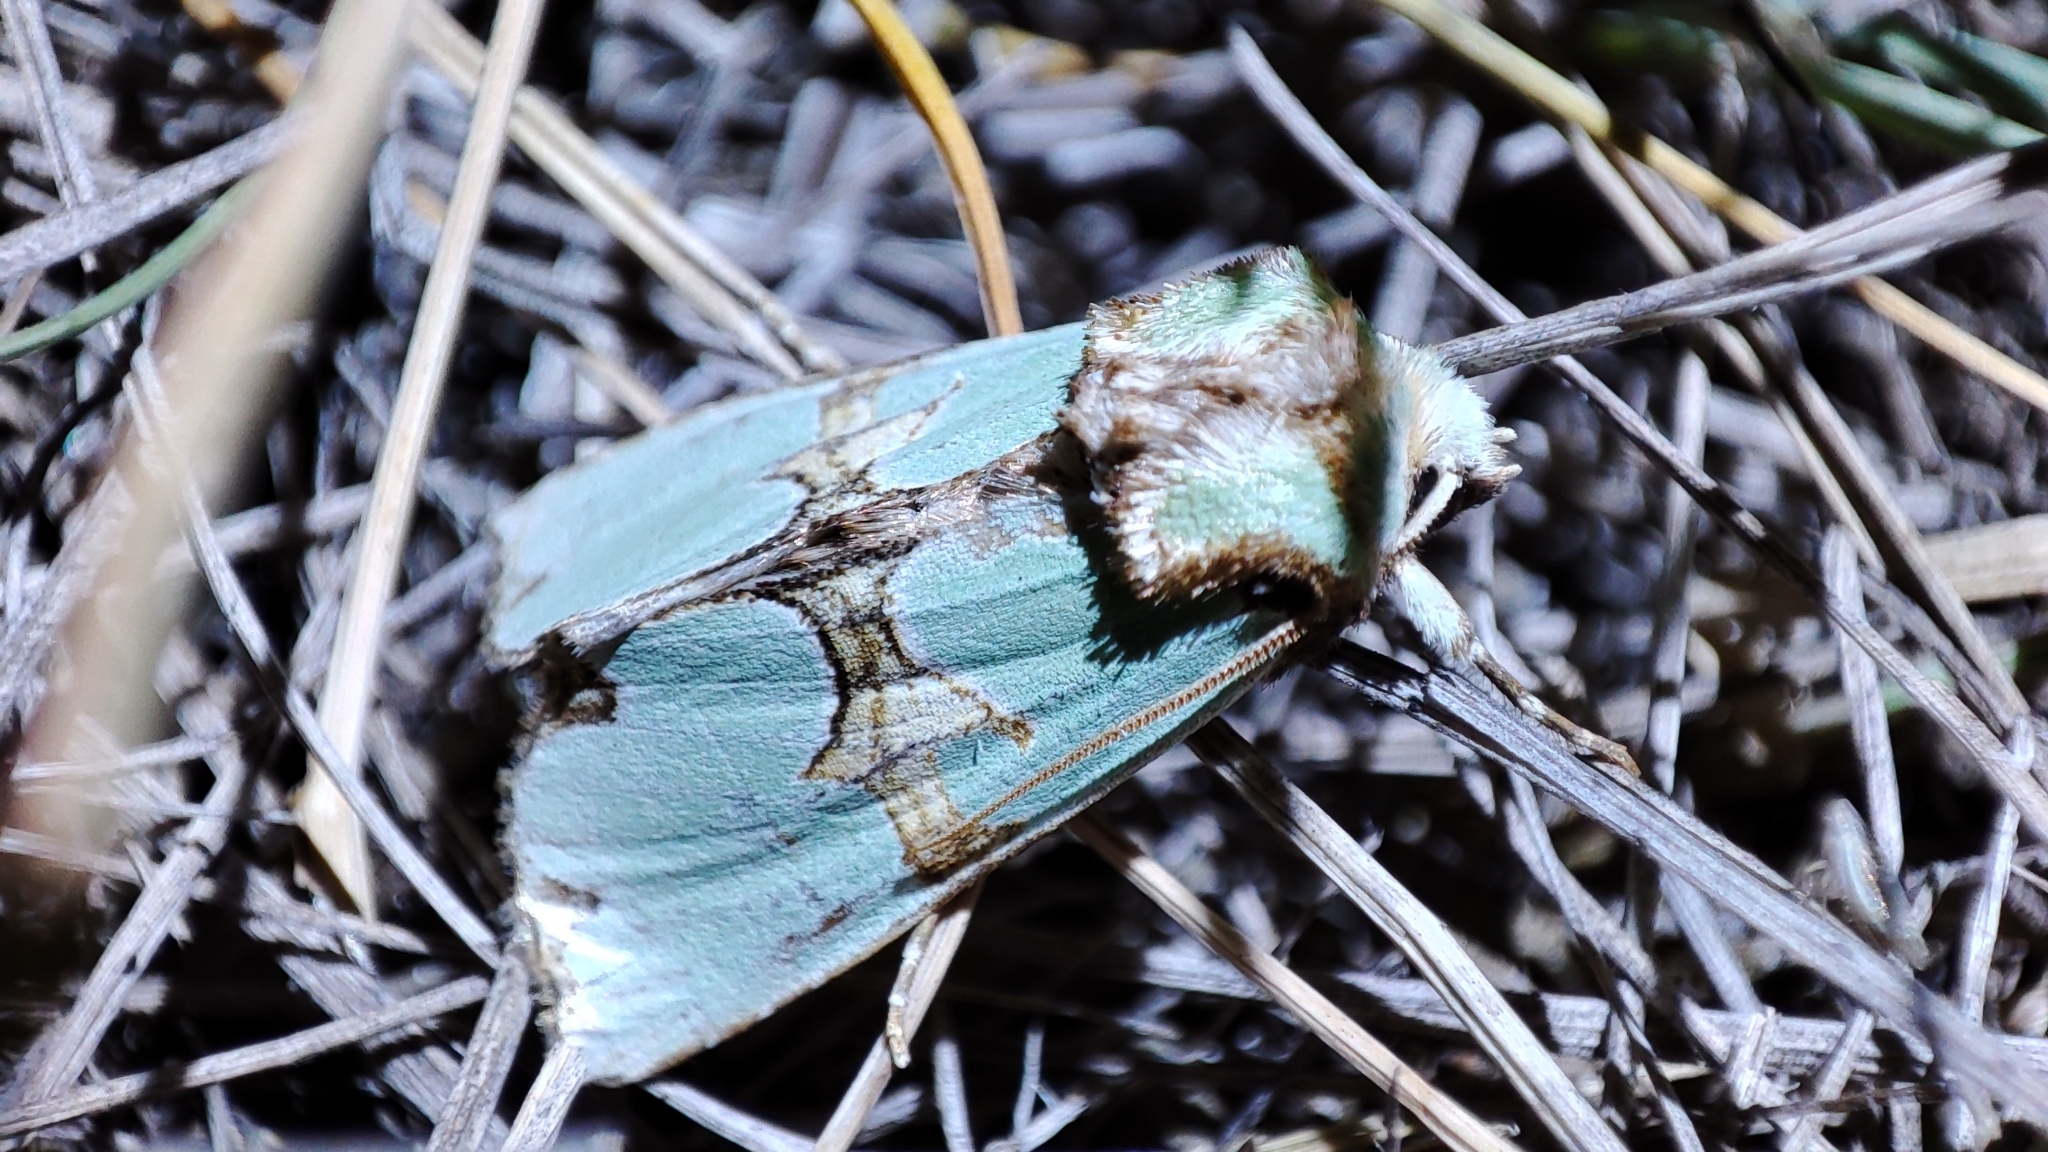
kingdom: Animalia
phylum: Arthropoda
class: Insecta
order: Lepidoptera
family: Noctuidae
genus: Staurophora
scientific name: Staurophora celsia
